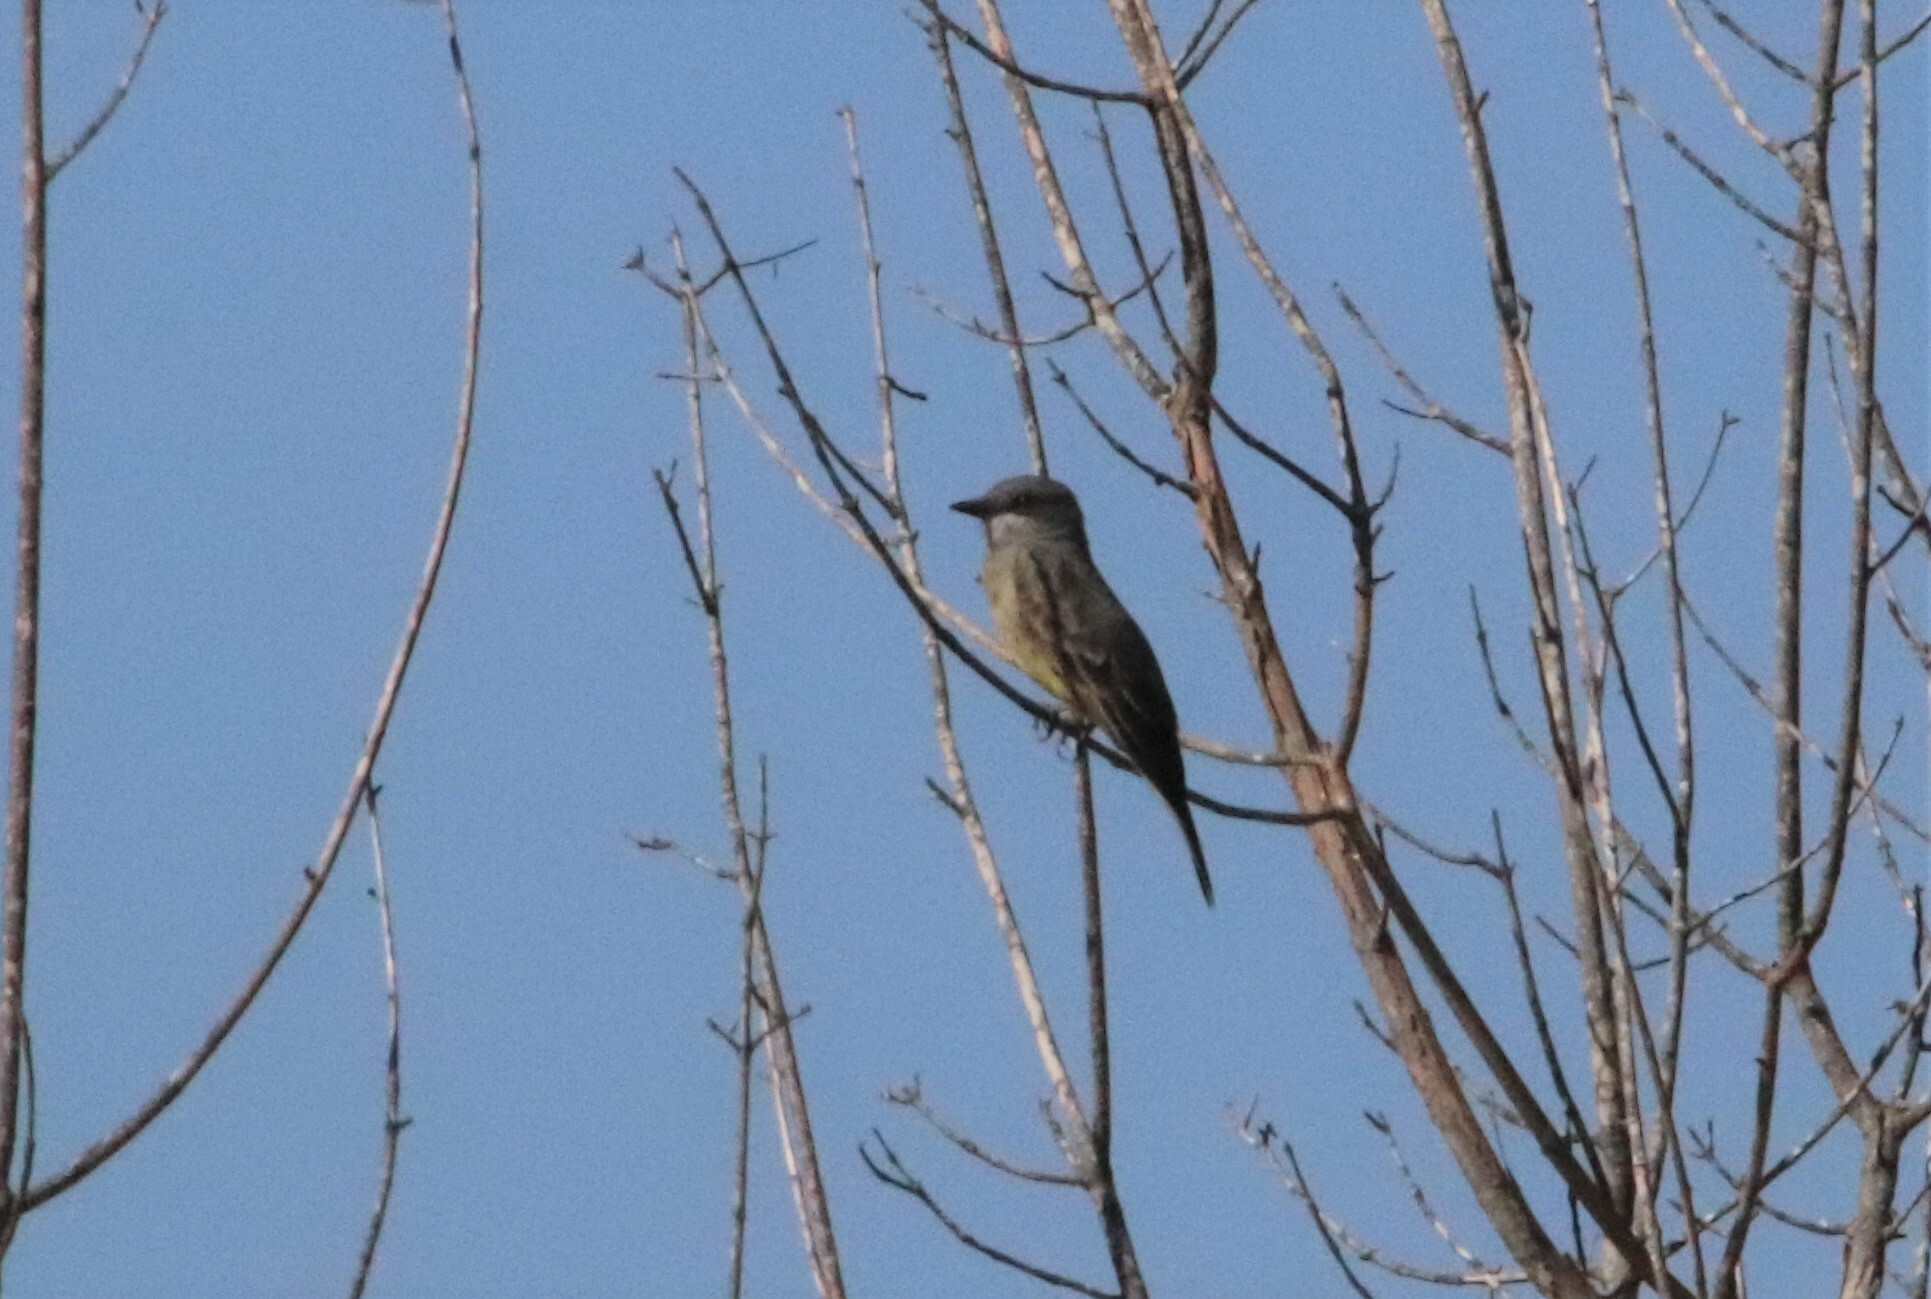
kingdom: Animalia
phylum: Chordata
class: Aves
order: Passeriformes
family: Tyrannidae
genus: Tyrannus
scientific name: Tyrannus vociferans
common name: Cassin's kingbird
